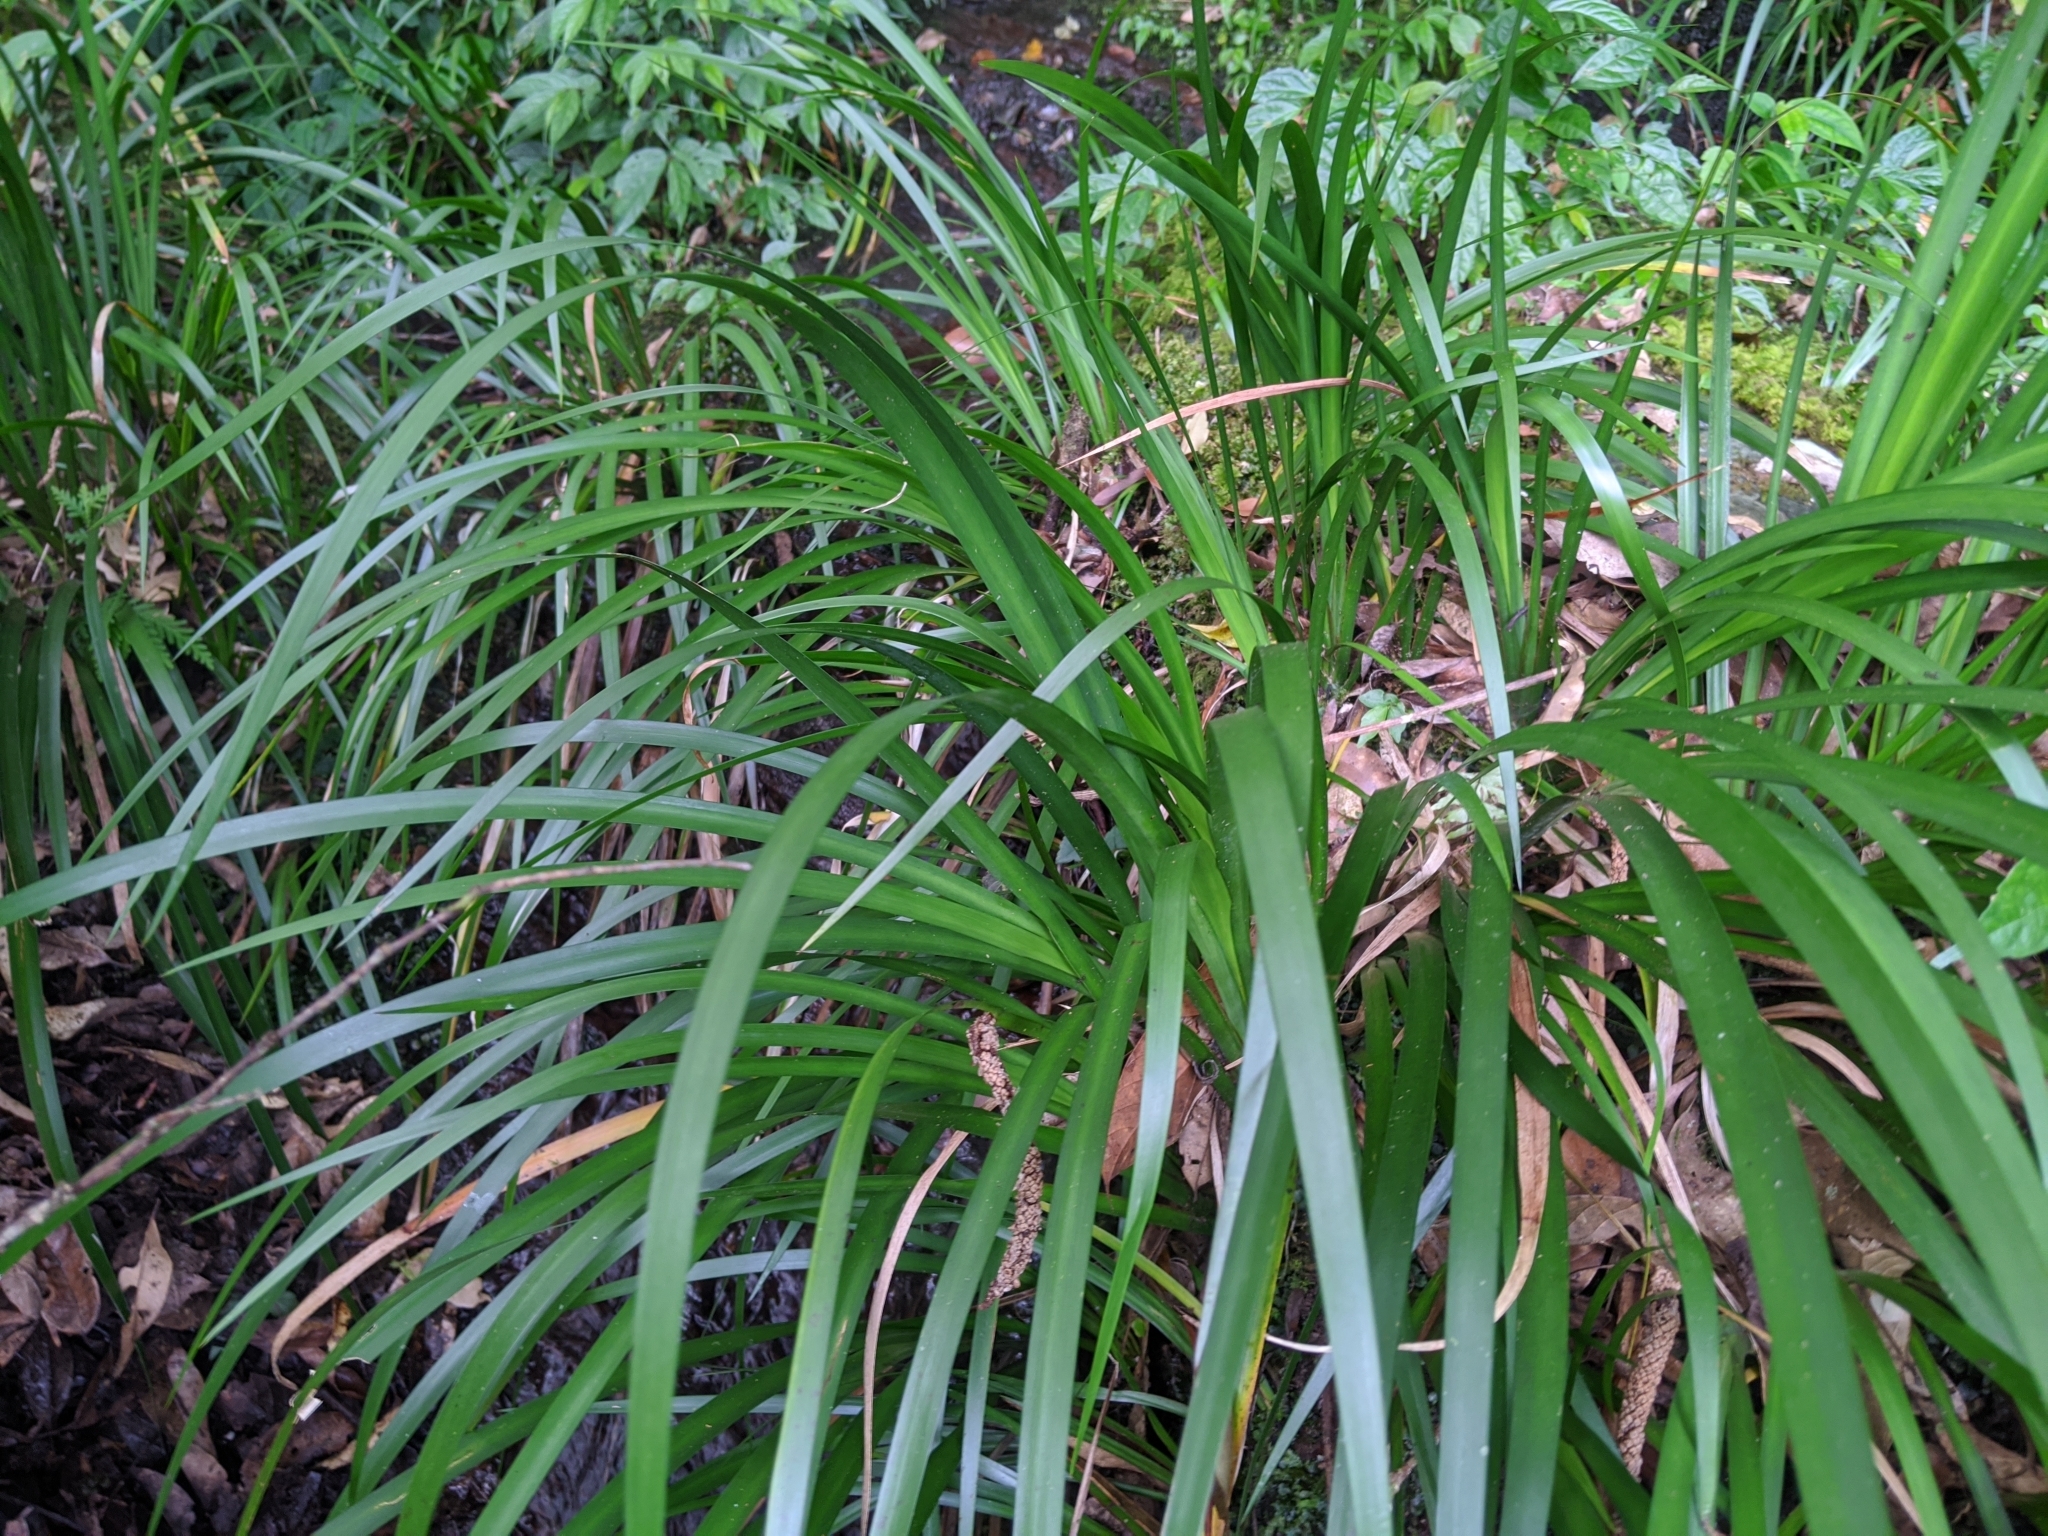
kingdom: Plantae
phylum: Tracheophyta
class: Liliopsida
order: Acorales
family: Acoraceae
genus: Acorus
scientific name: Acorus gramineus
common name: Slender sweet-flag
